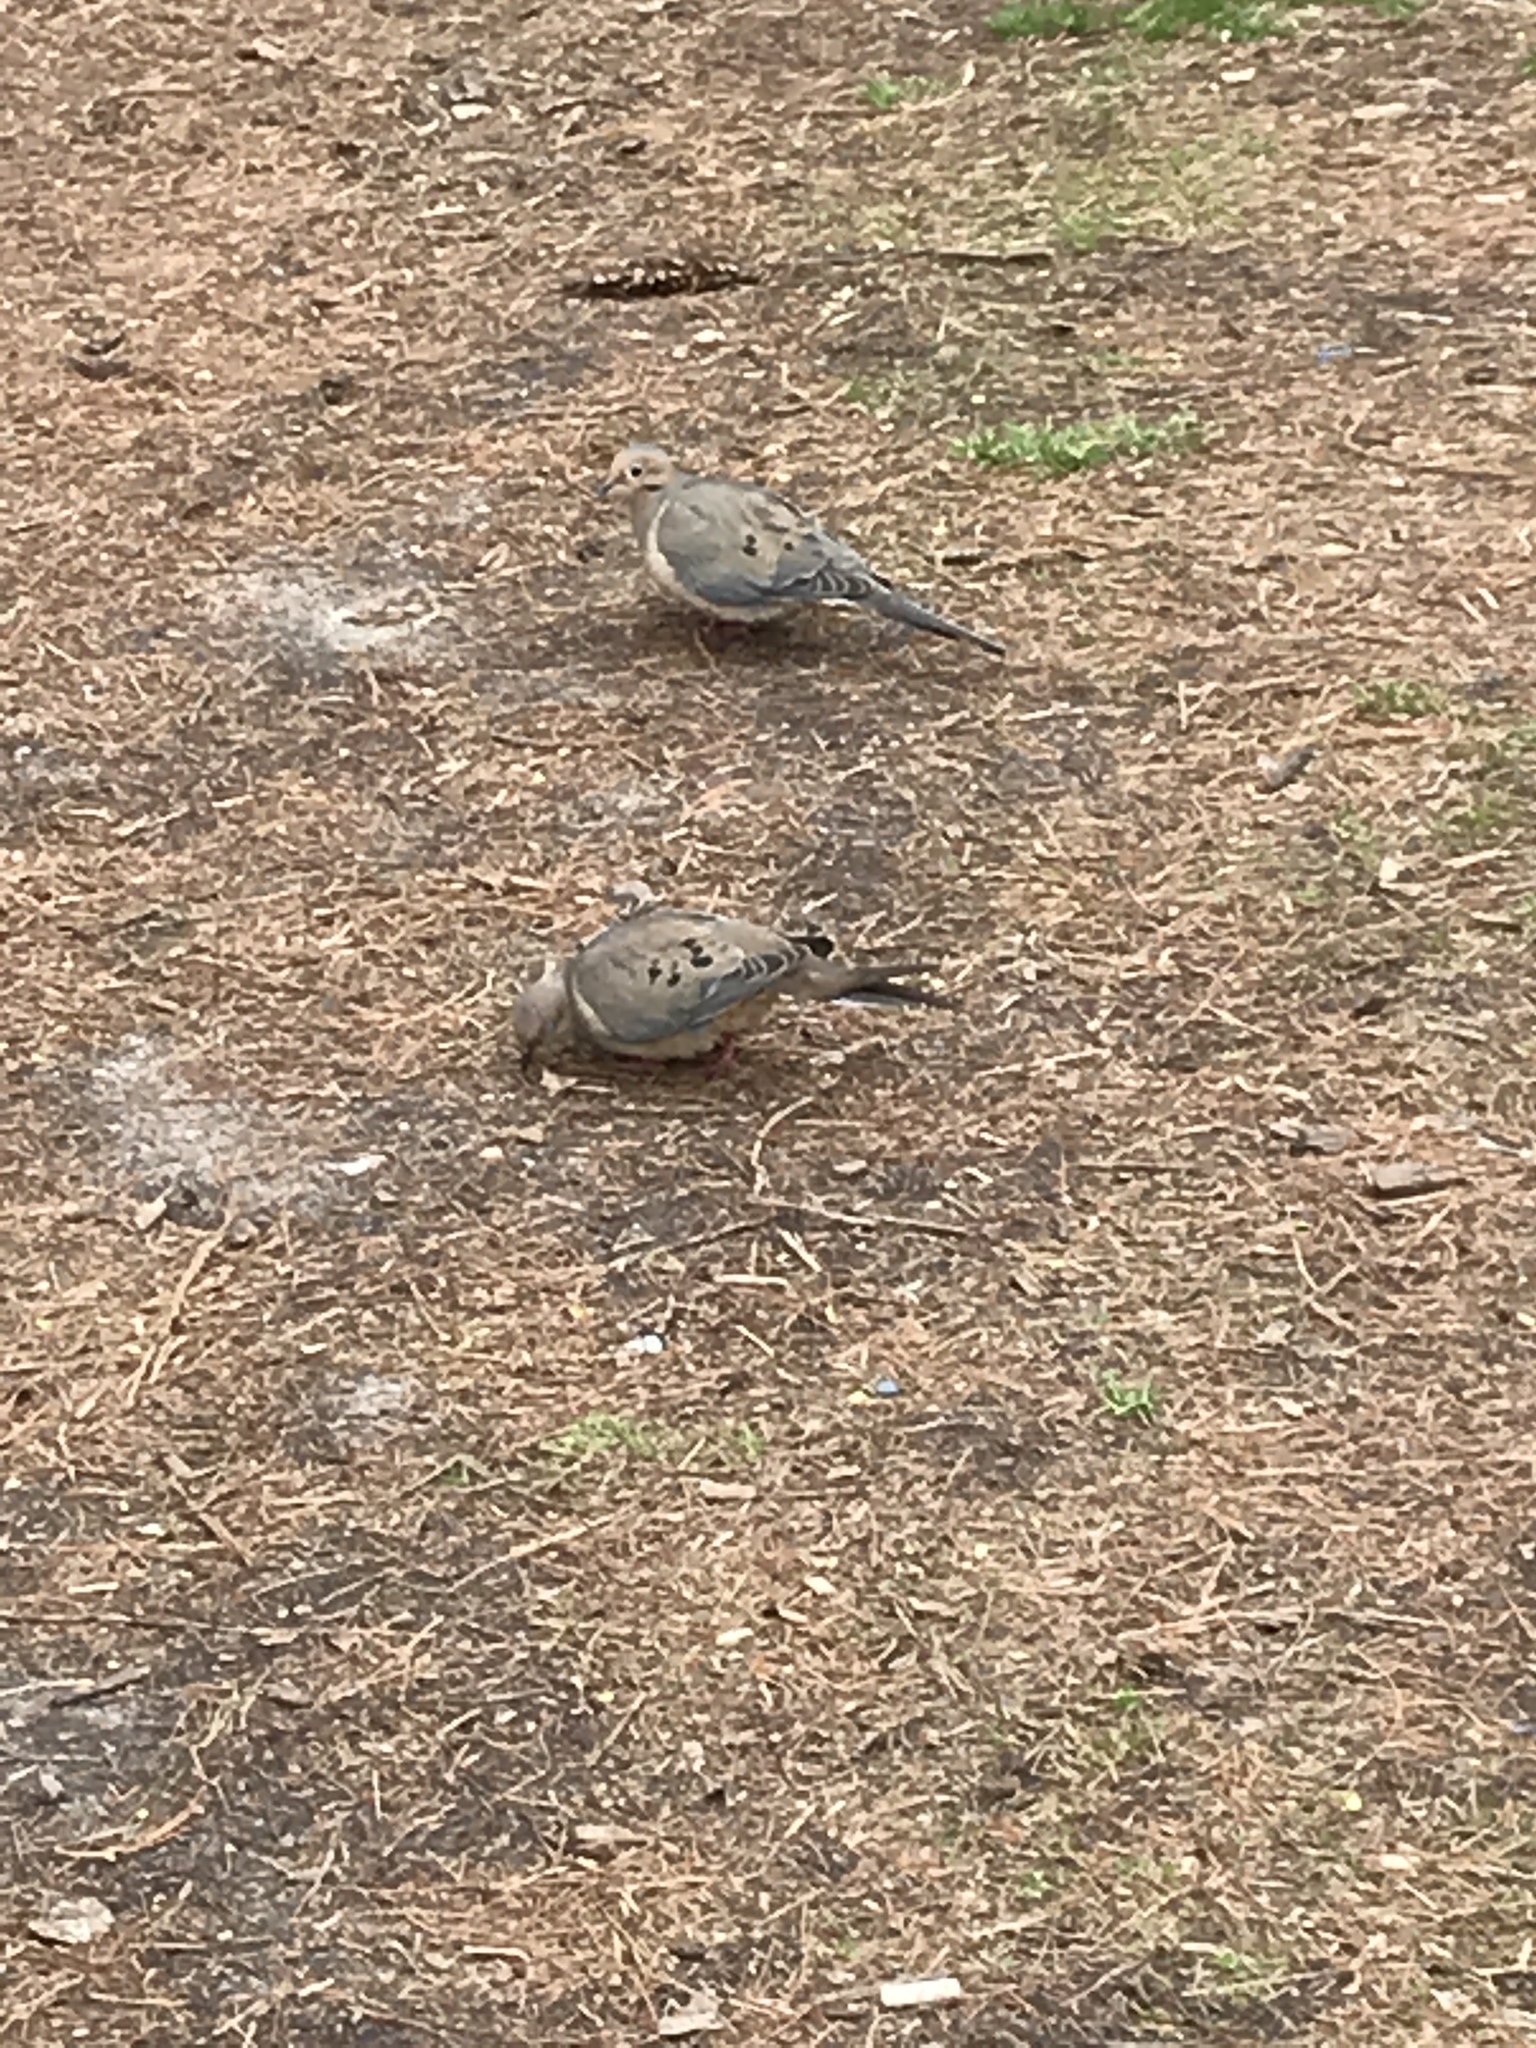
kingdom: Animalia
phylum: Chordata
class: Aves
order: Columbiformes
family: Columbidae
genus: Zenaida
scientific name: Zenaida macroura
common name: Mourning dove
